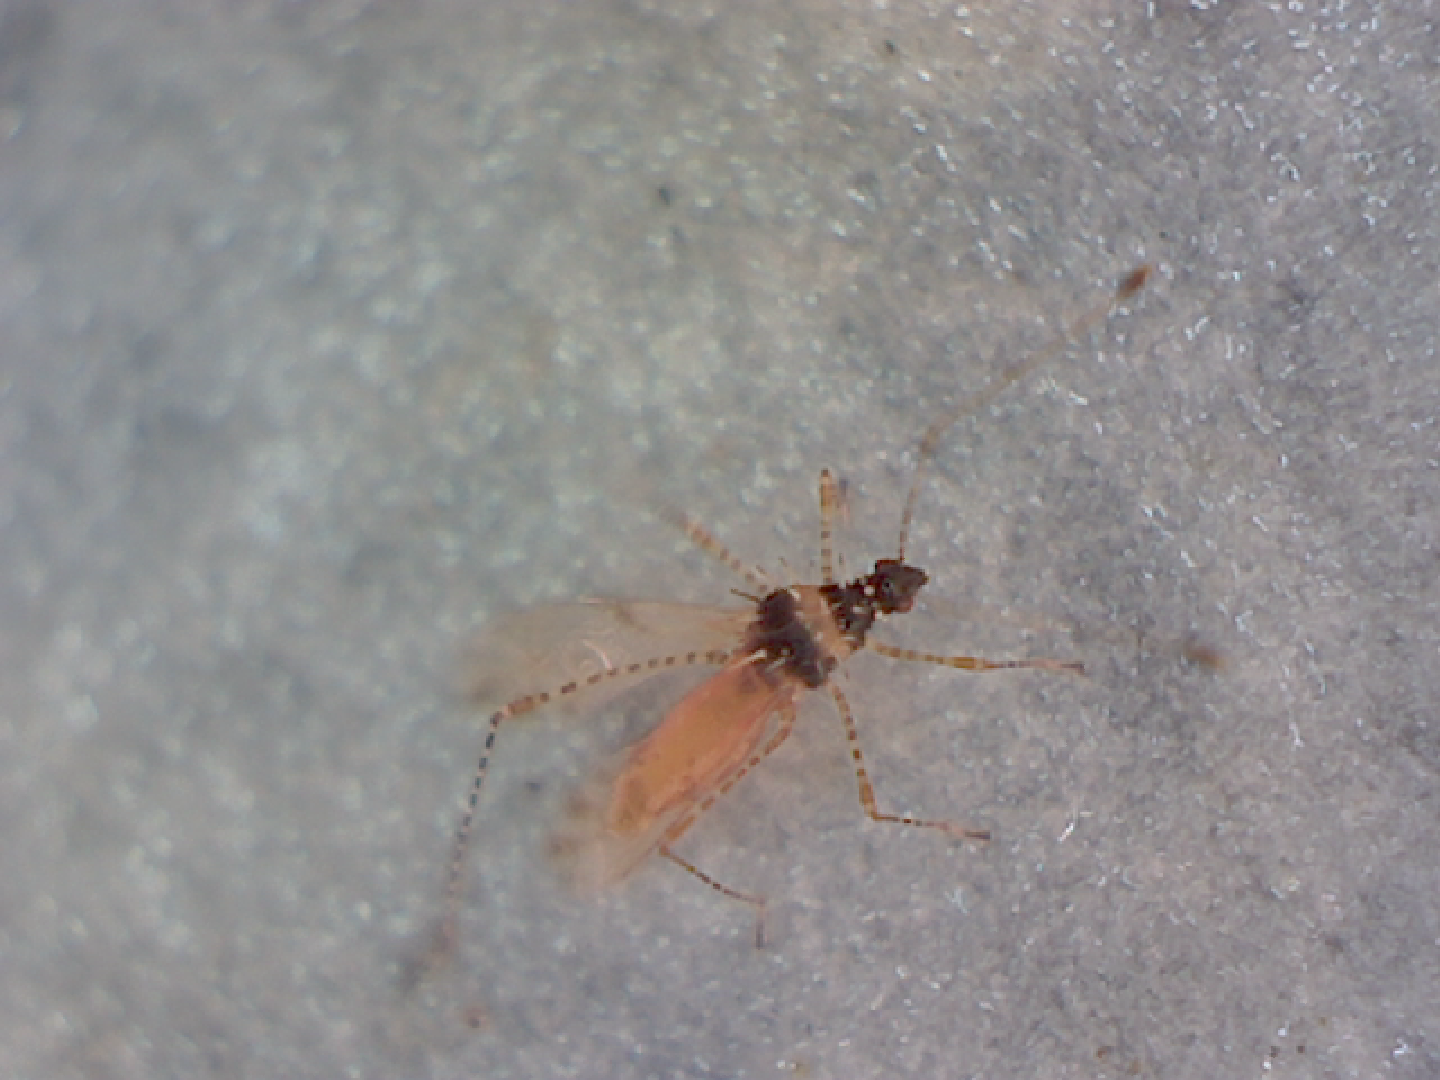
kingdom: Animalia
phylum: Arthropoda
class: Insecta
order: Hemiptera
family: Berytidae
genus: Pronotacantha
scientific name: Pronotacantha annulata
